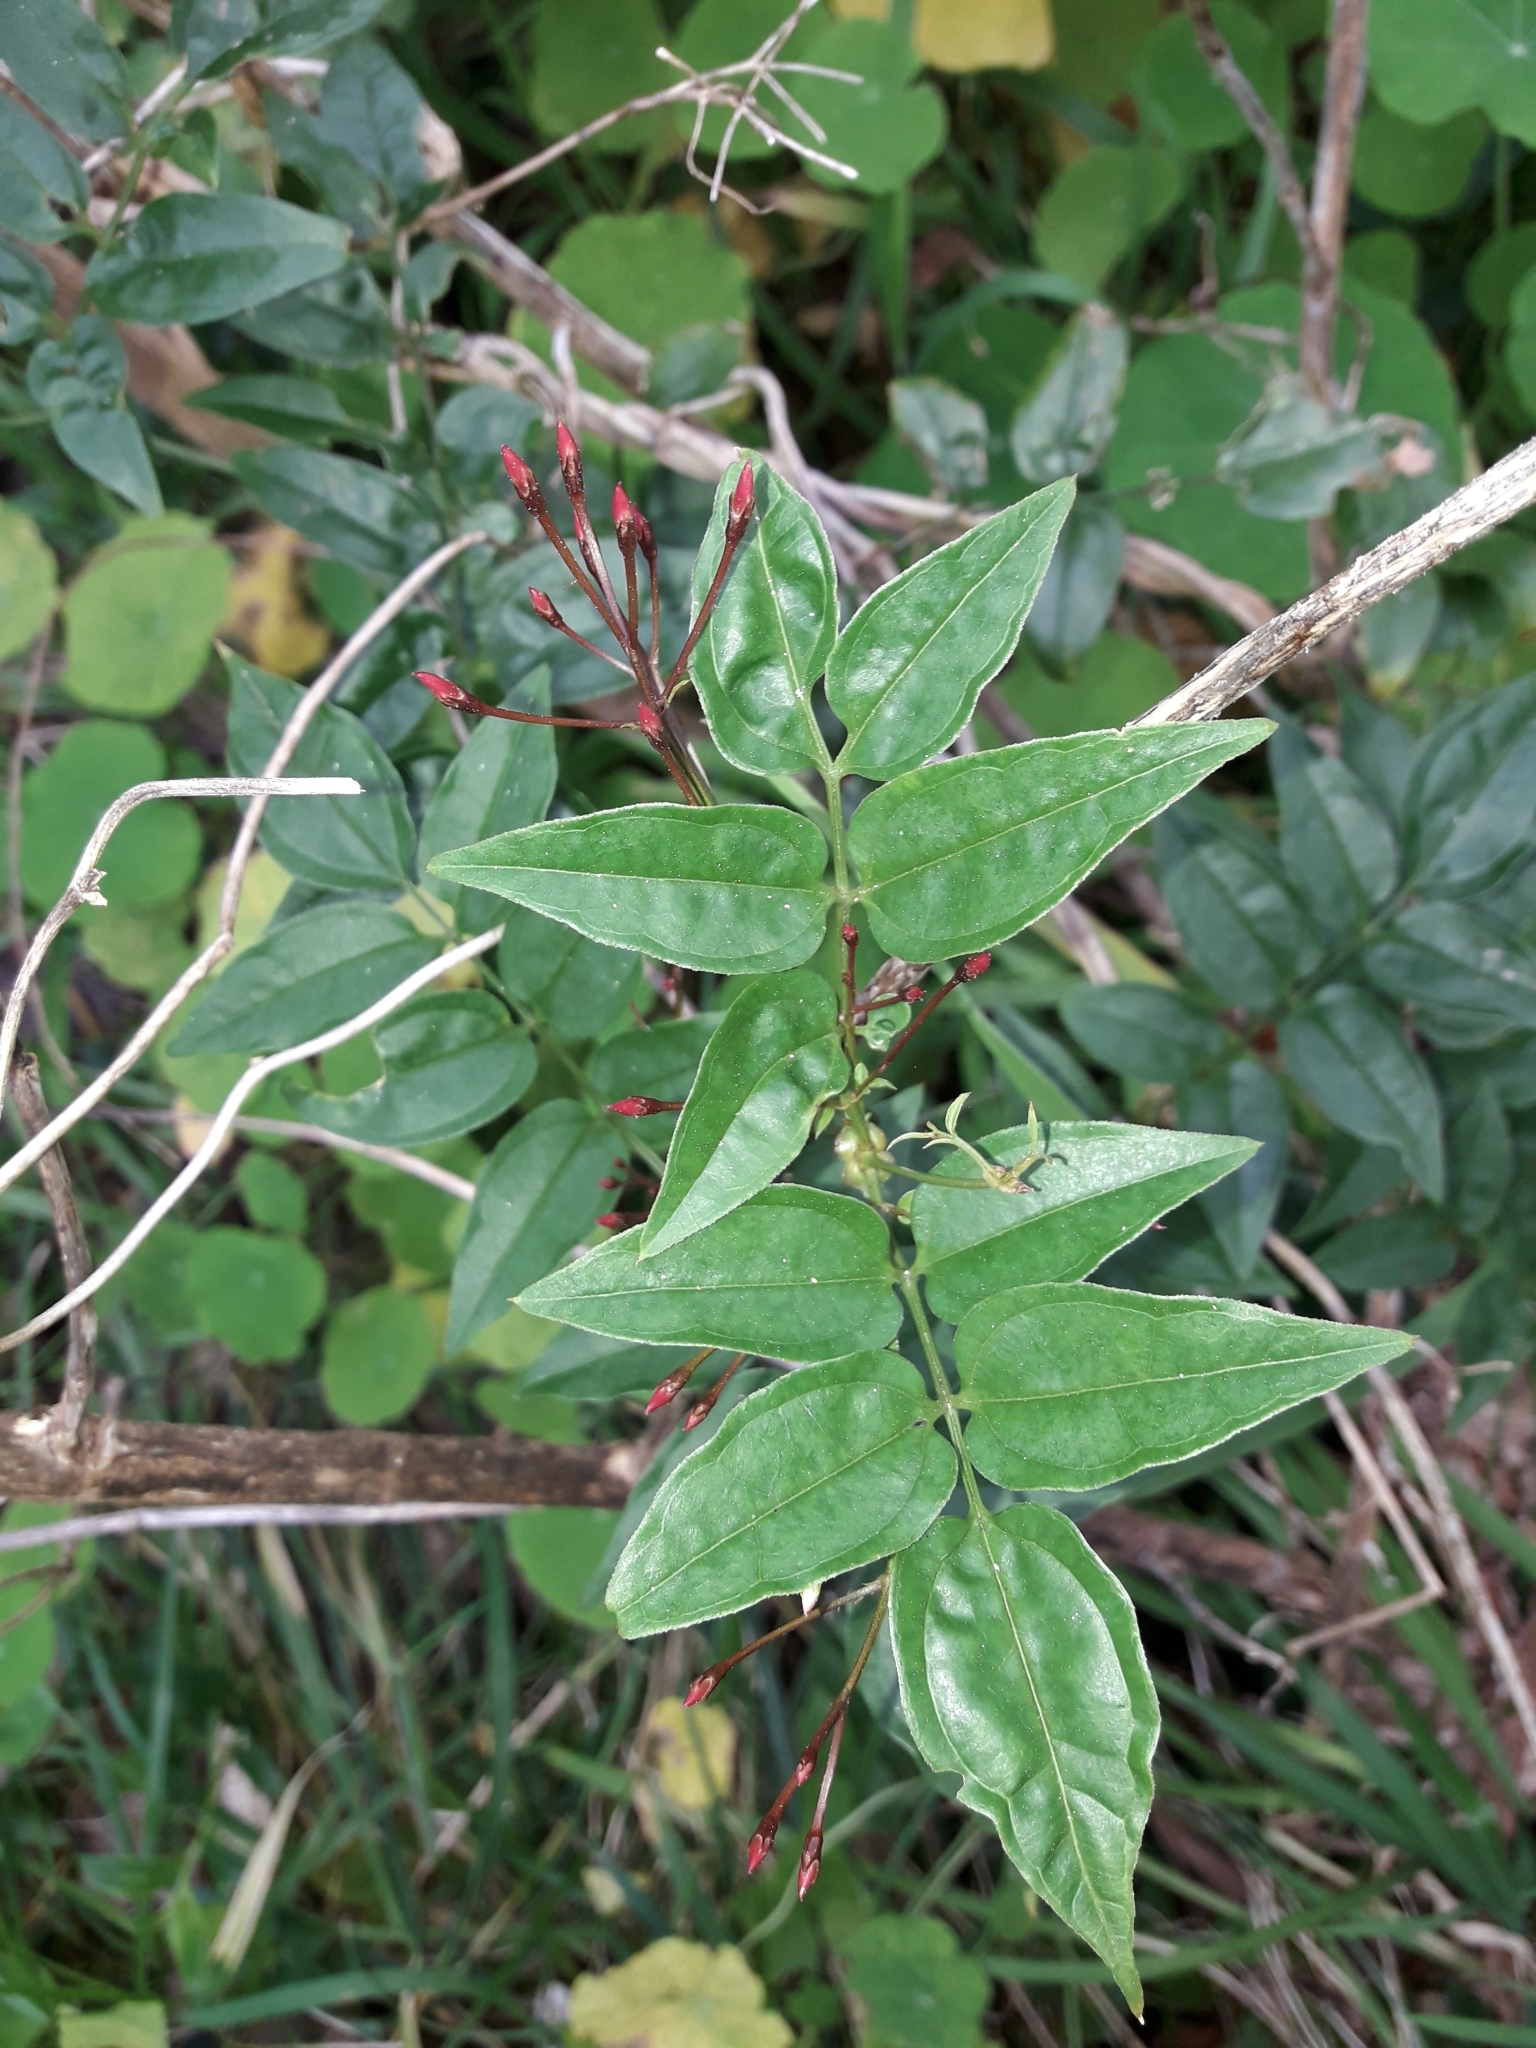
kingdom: Plantae
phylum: Tracheophyta
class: Magnoliopsida
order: Lamiales
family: Oleaceae
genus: Jasminum
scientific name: Jasminum polyanthum
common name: Pink jasmine
